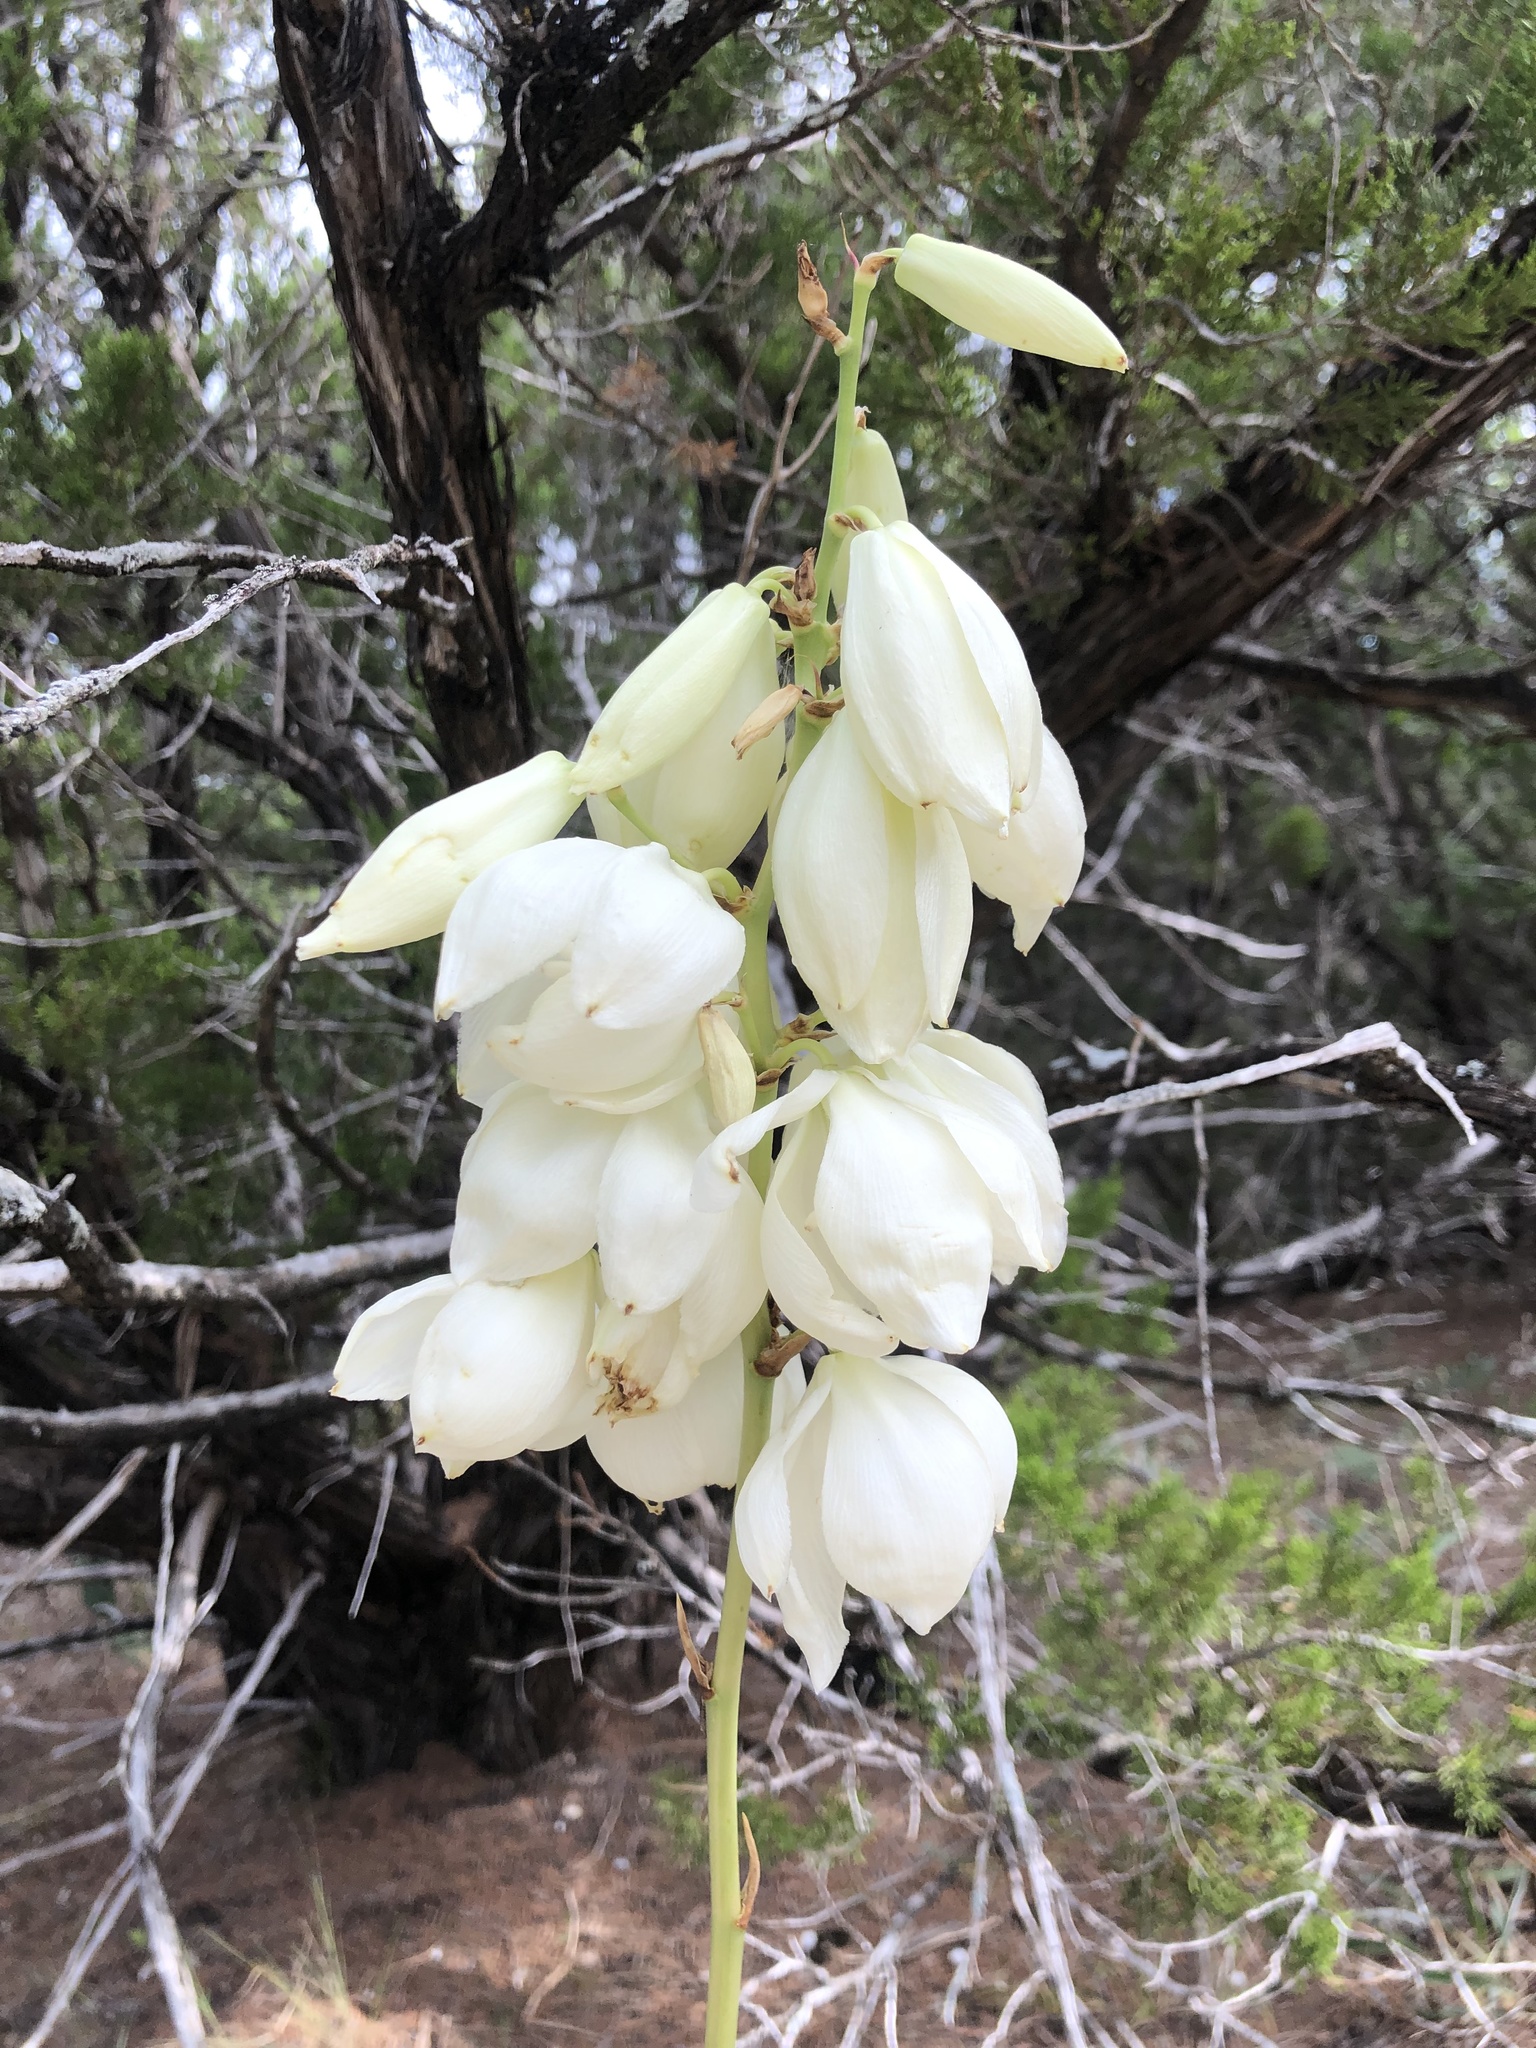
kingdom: Plantae
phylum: Tracheophyta
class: Liliopsida
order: Asparagales
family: Asparagaceae
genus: Yucca
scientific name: Yucca rupicola
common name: Twisted-leaf spanish-dagger
